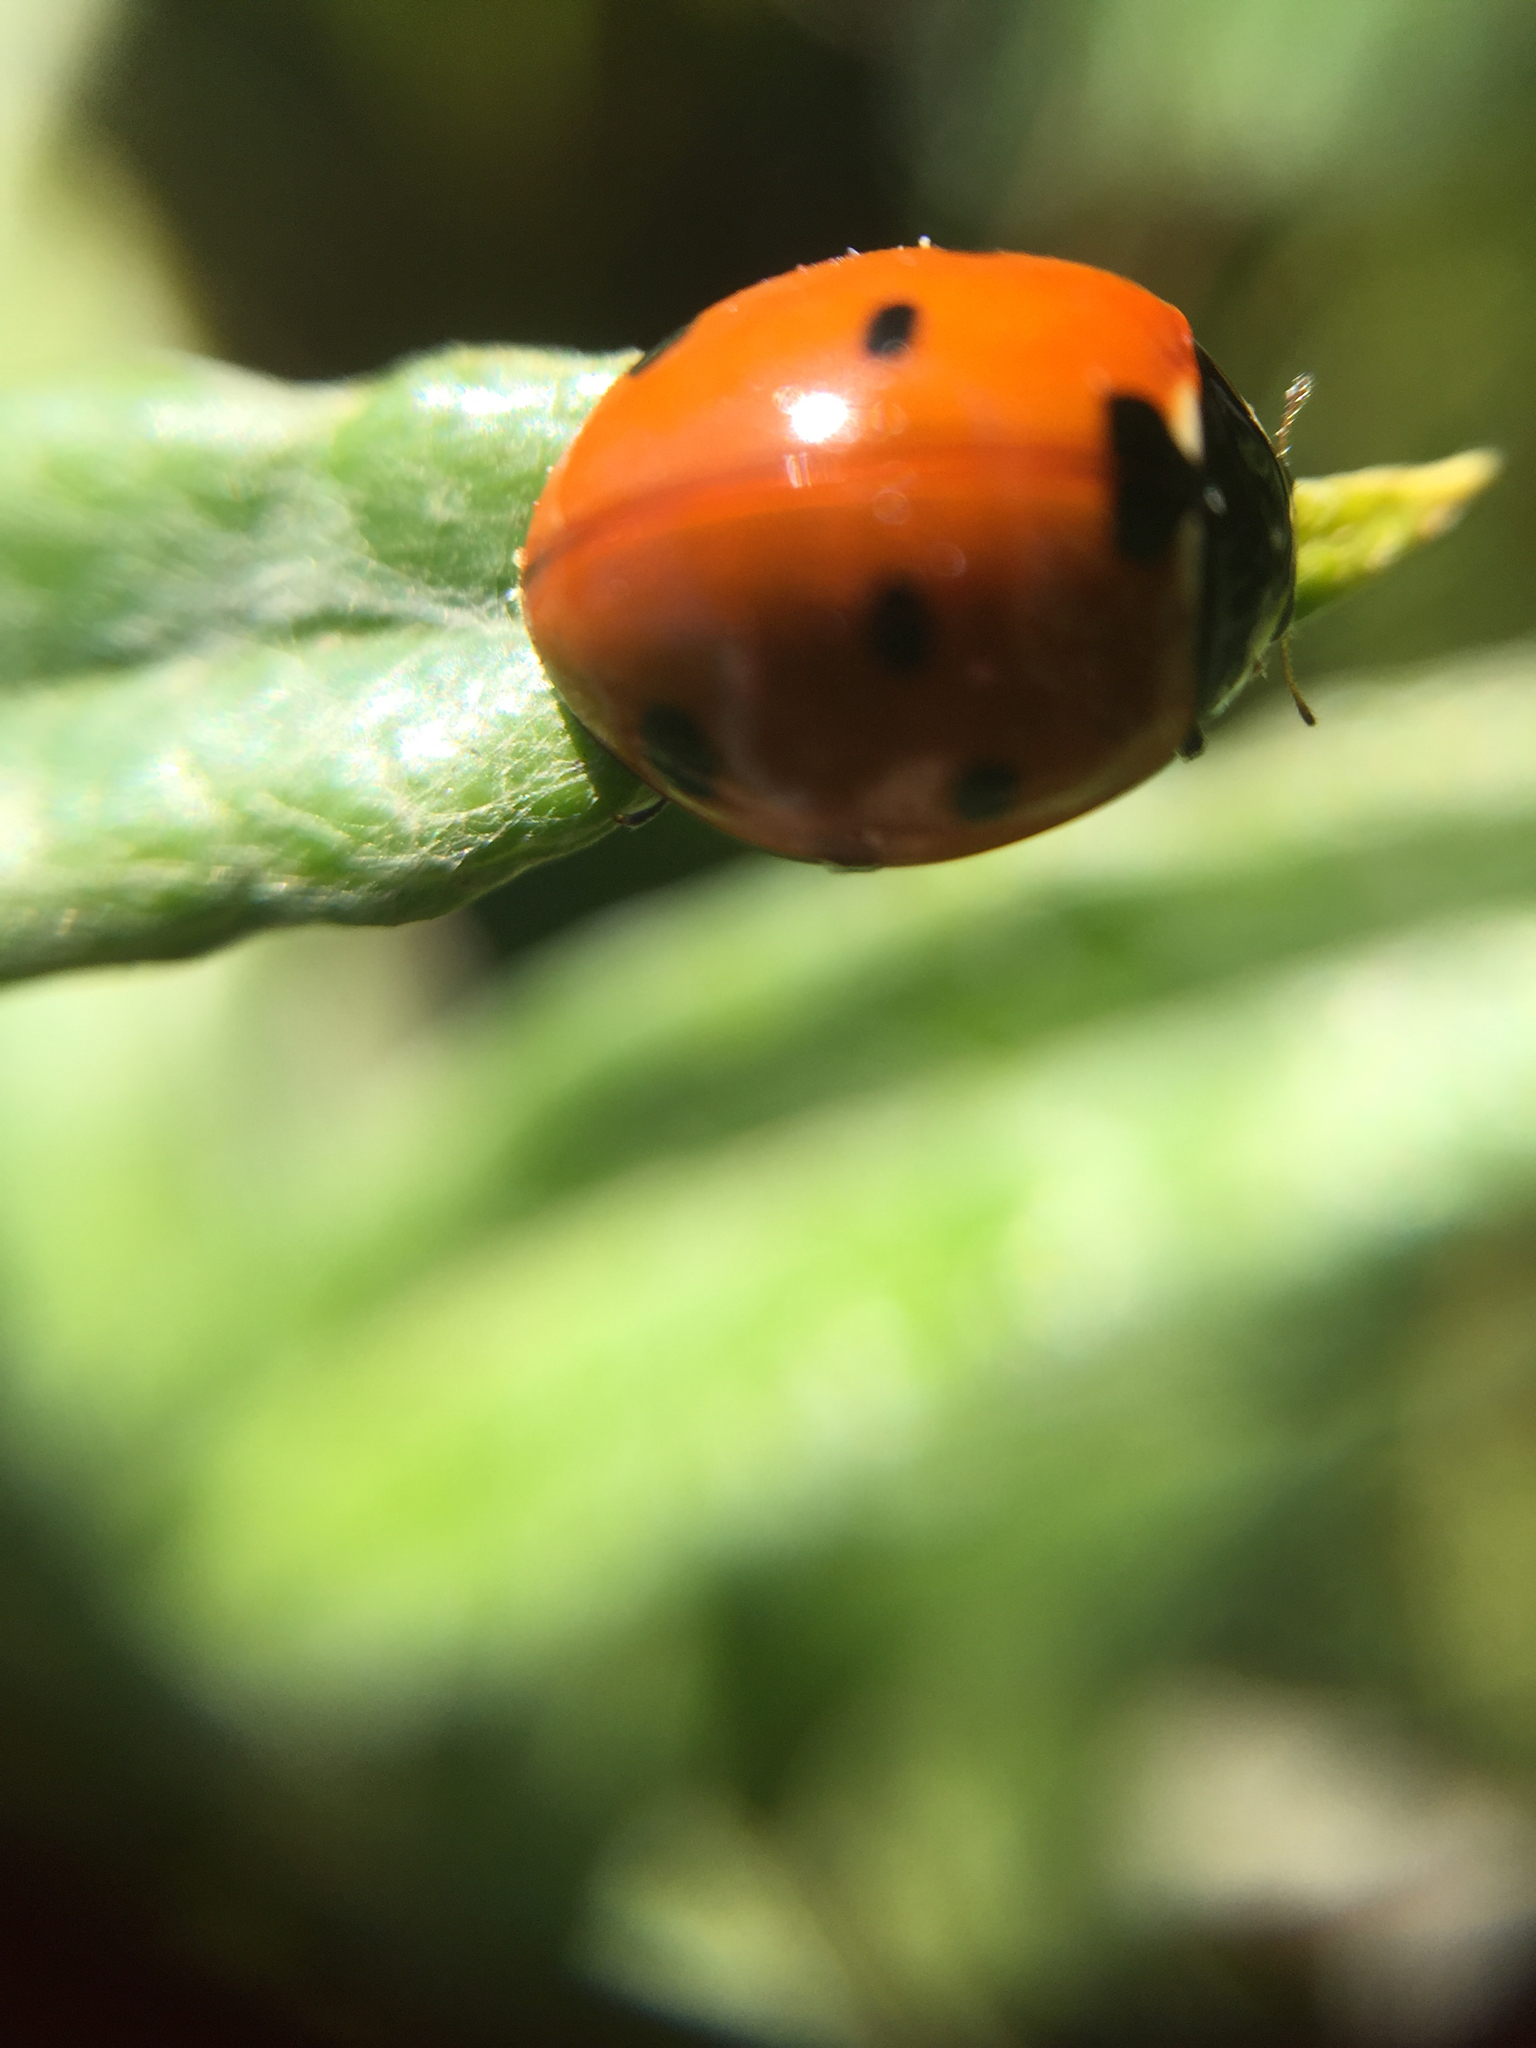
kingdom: Animalia
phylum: Arthropoda
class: Insecta
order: Coleoptera
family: Coccinellidae
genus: Coccinella
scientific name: Coccinella septempunctata
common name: Sevenspotted lady beetle
